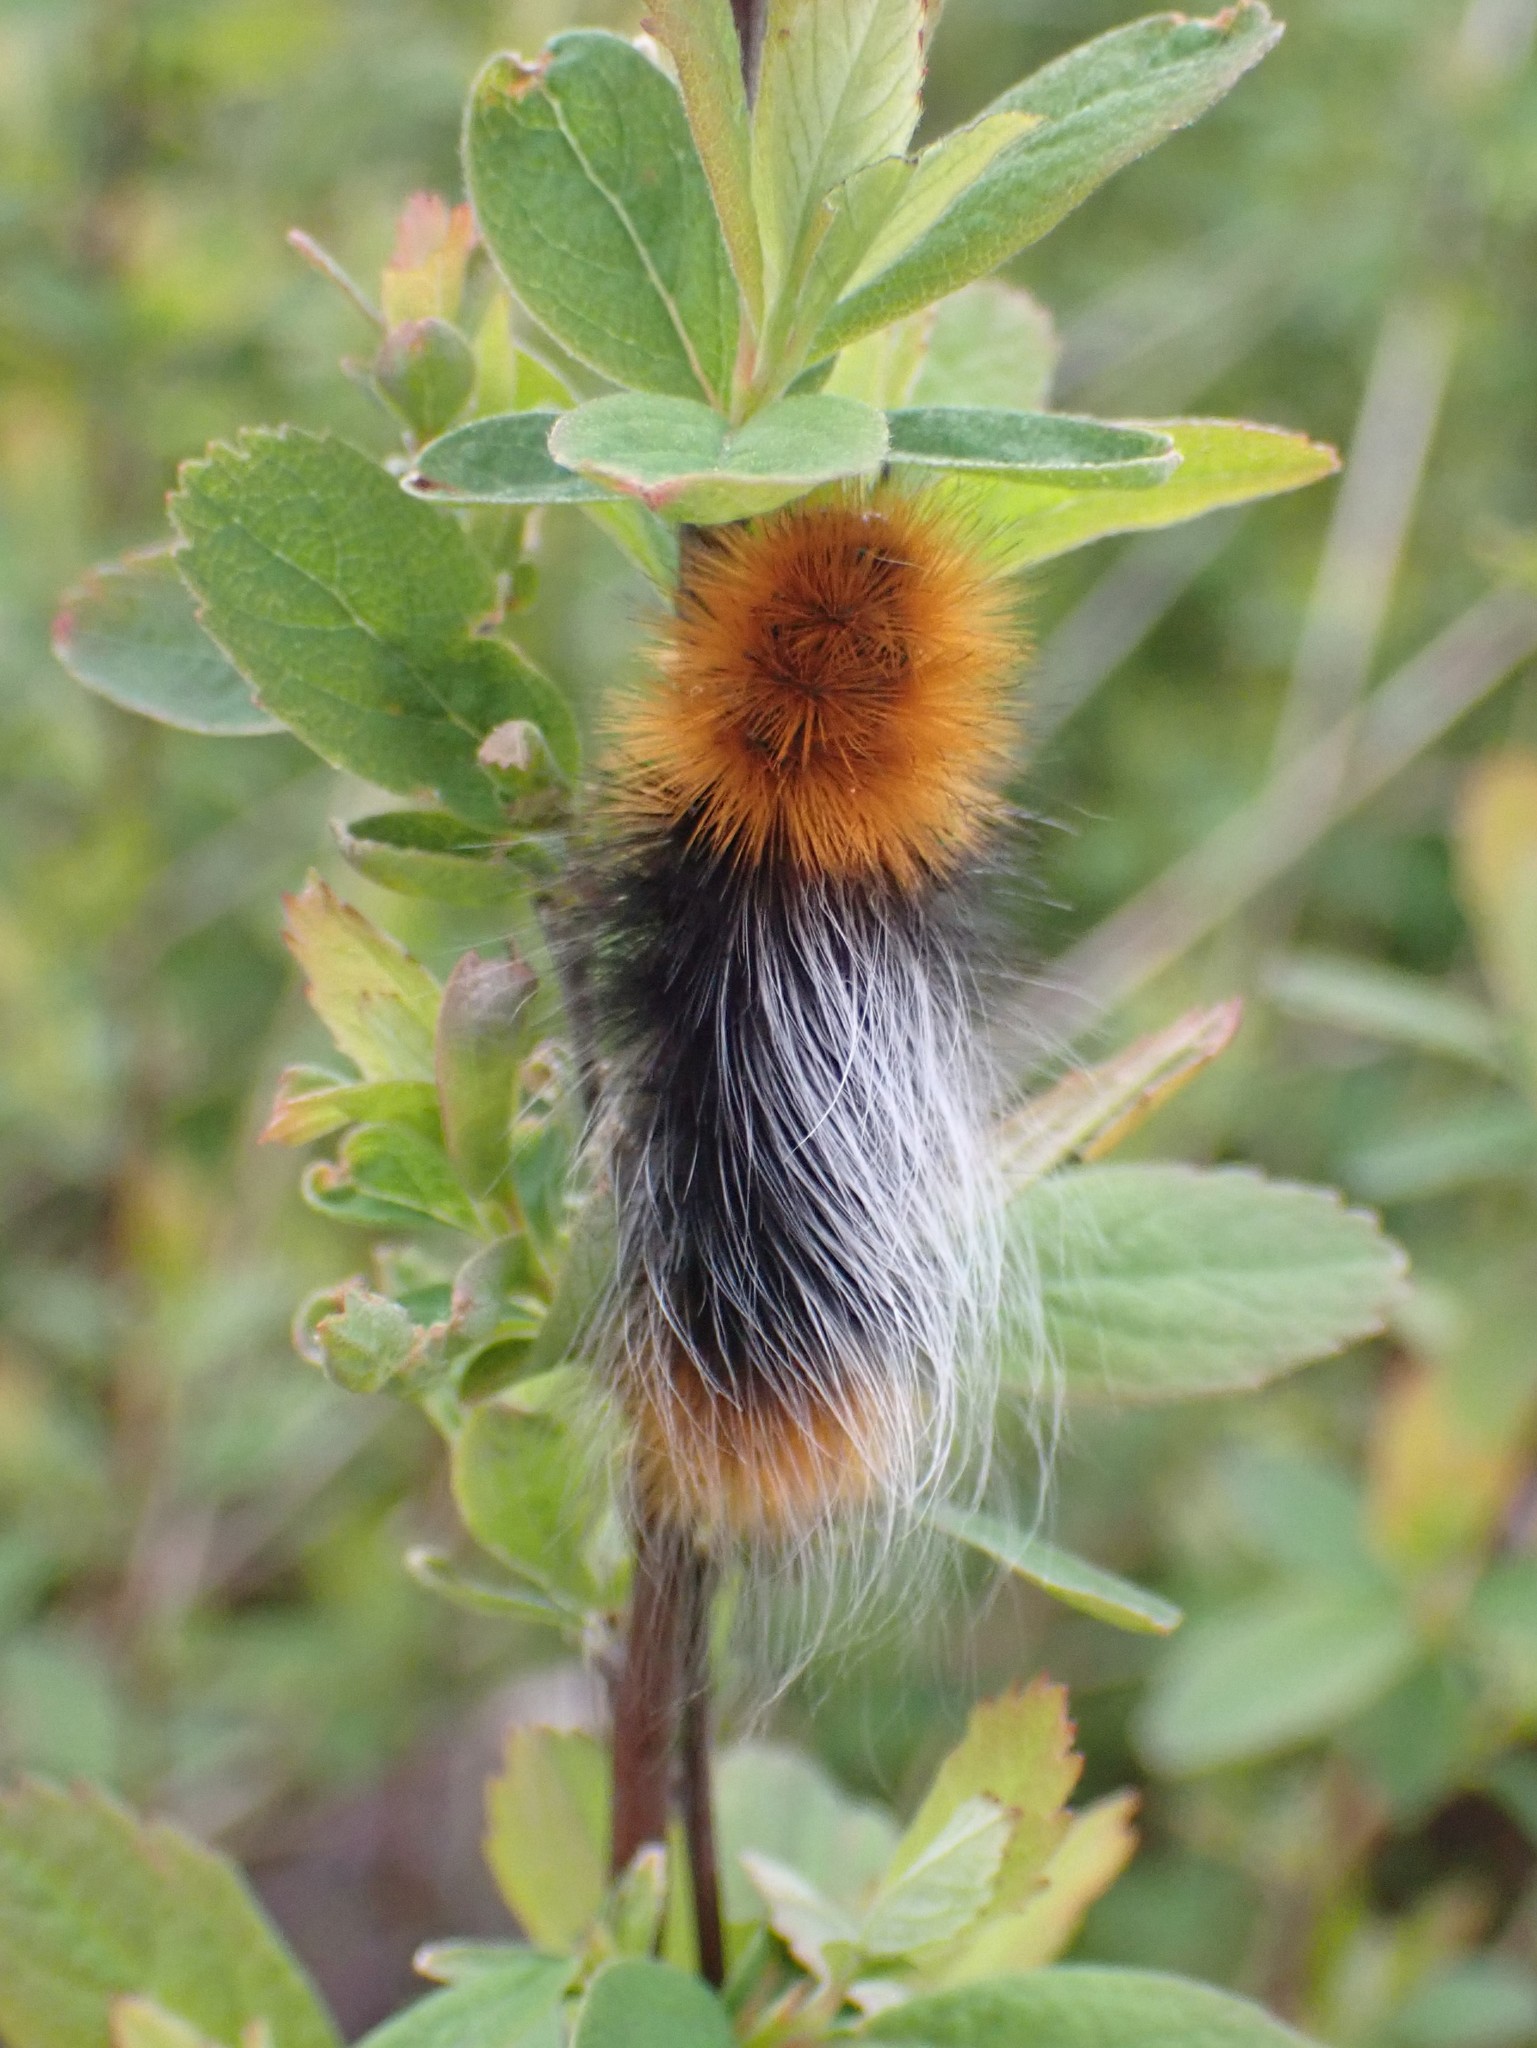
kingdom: Animalia
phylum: Arthropoda
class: Insecta
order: Lepidoptera
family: Erebidae
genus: Arctia
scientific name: Arctia tigrina
